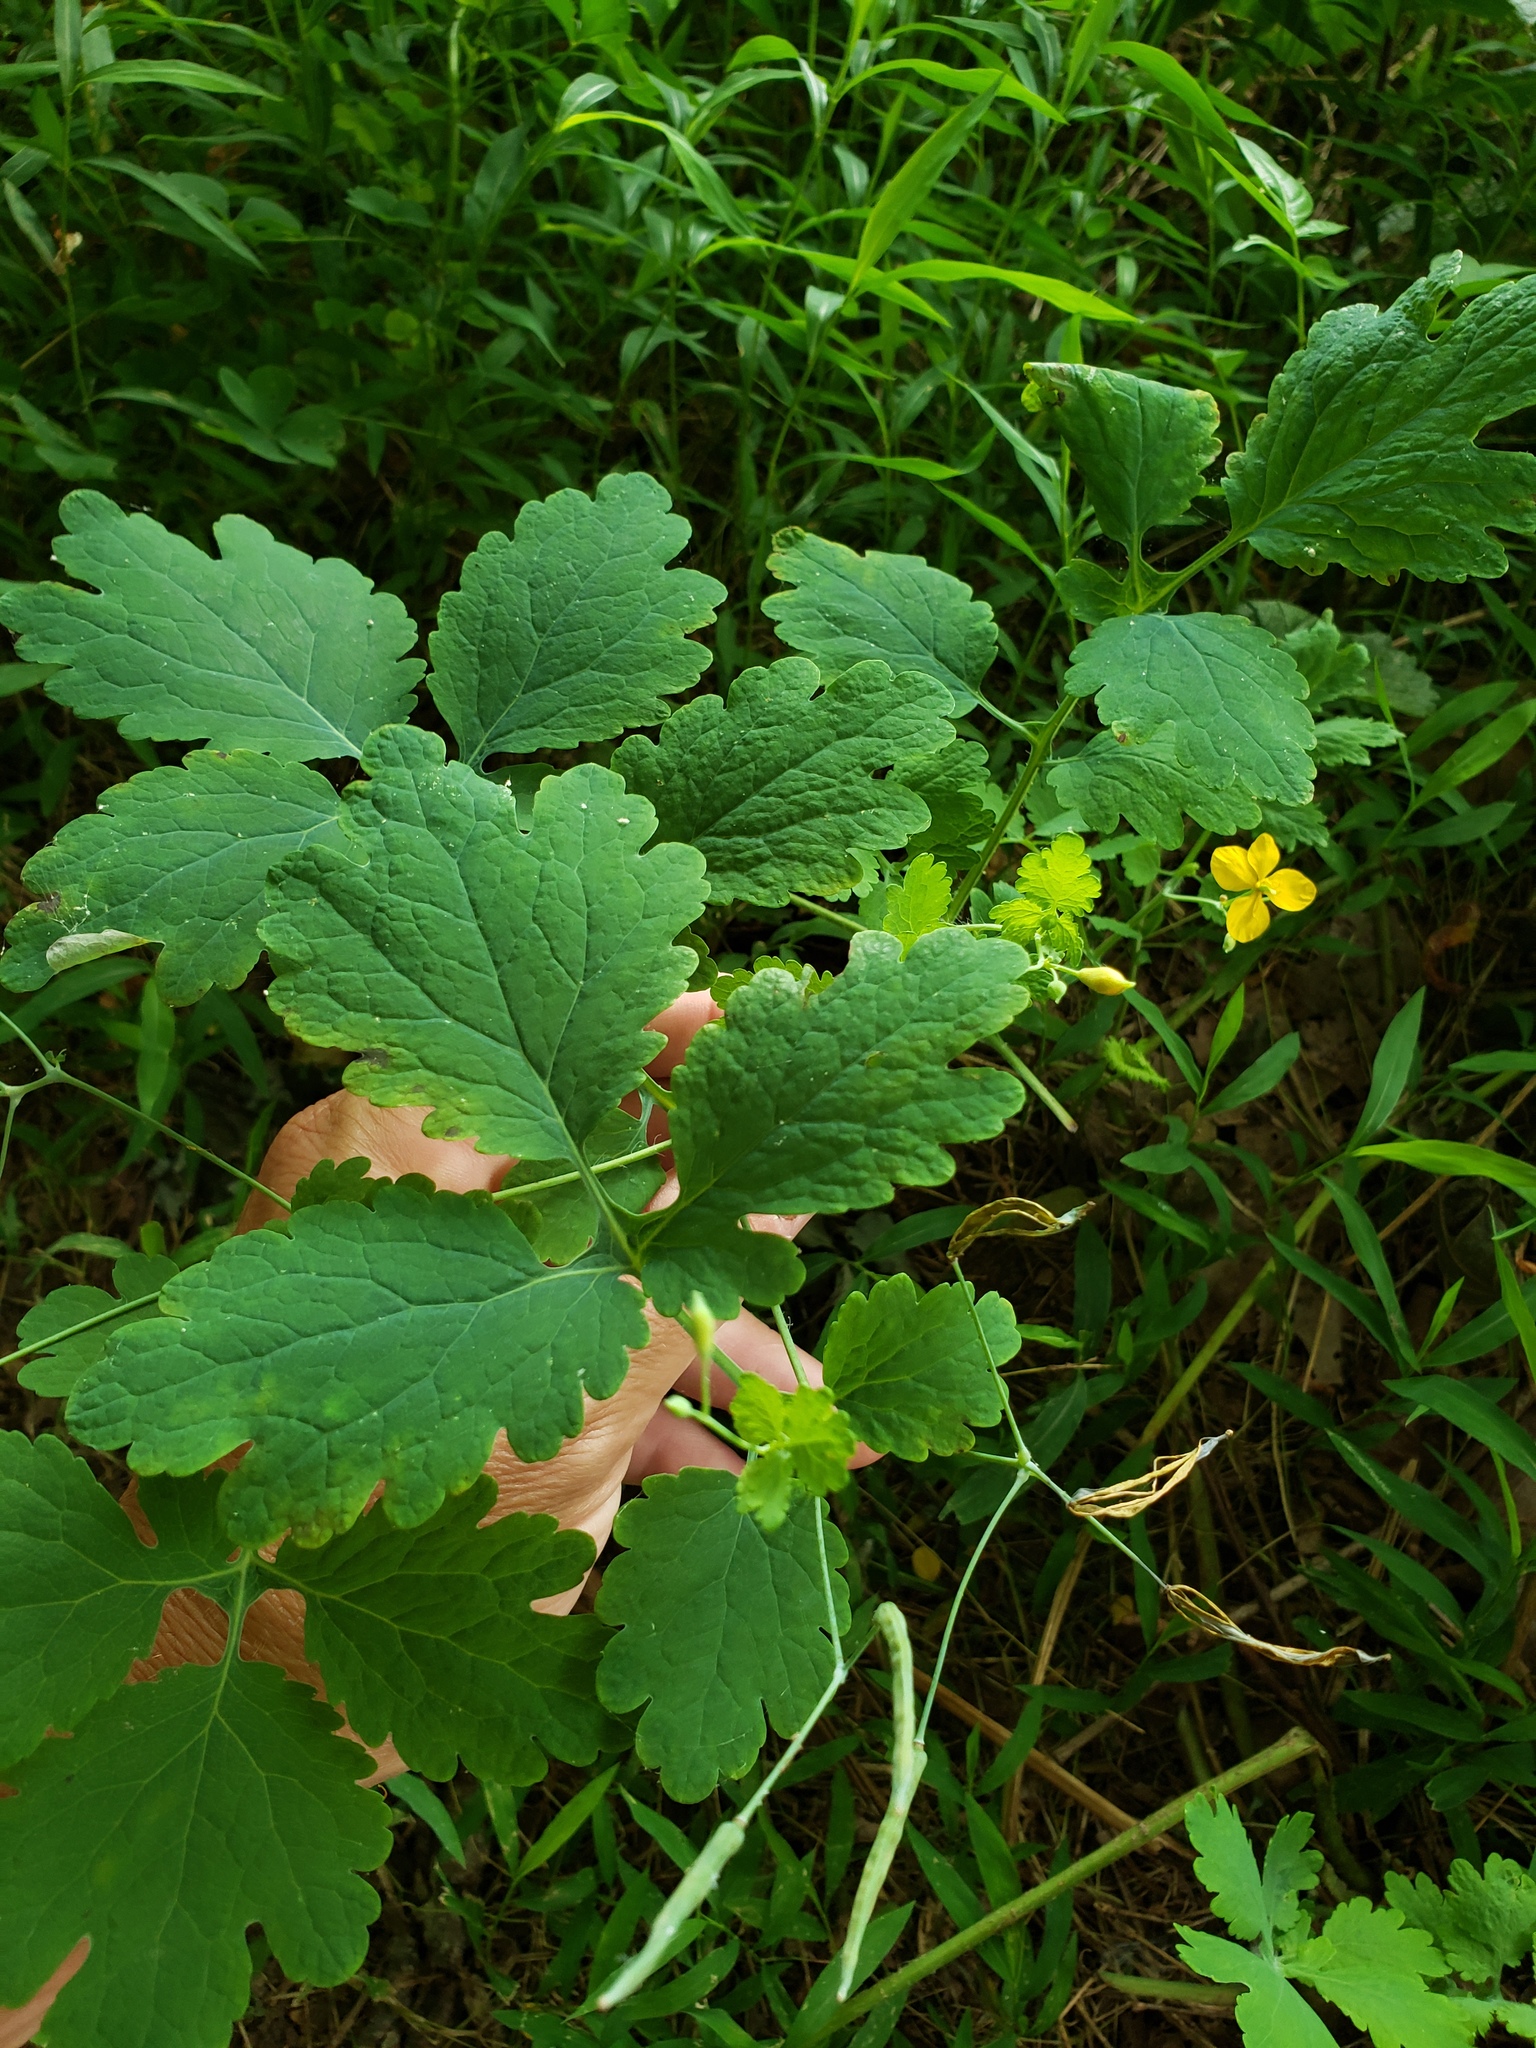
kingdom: Plantae
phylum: Tracheophyta
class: Magnoliopsida
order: Ranunculales
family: Papaveraceae
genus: Chelidonium
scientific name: Chelidonium majus
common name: Greater celandine
